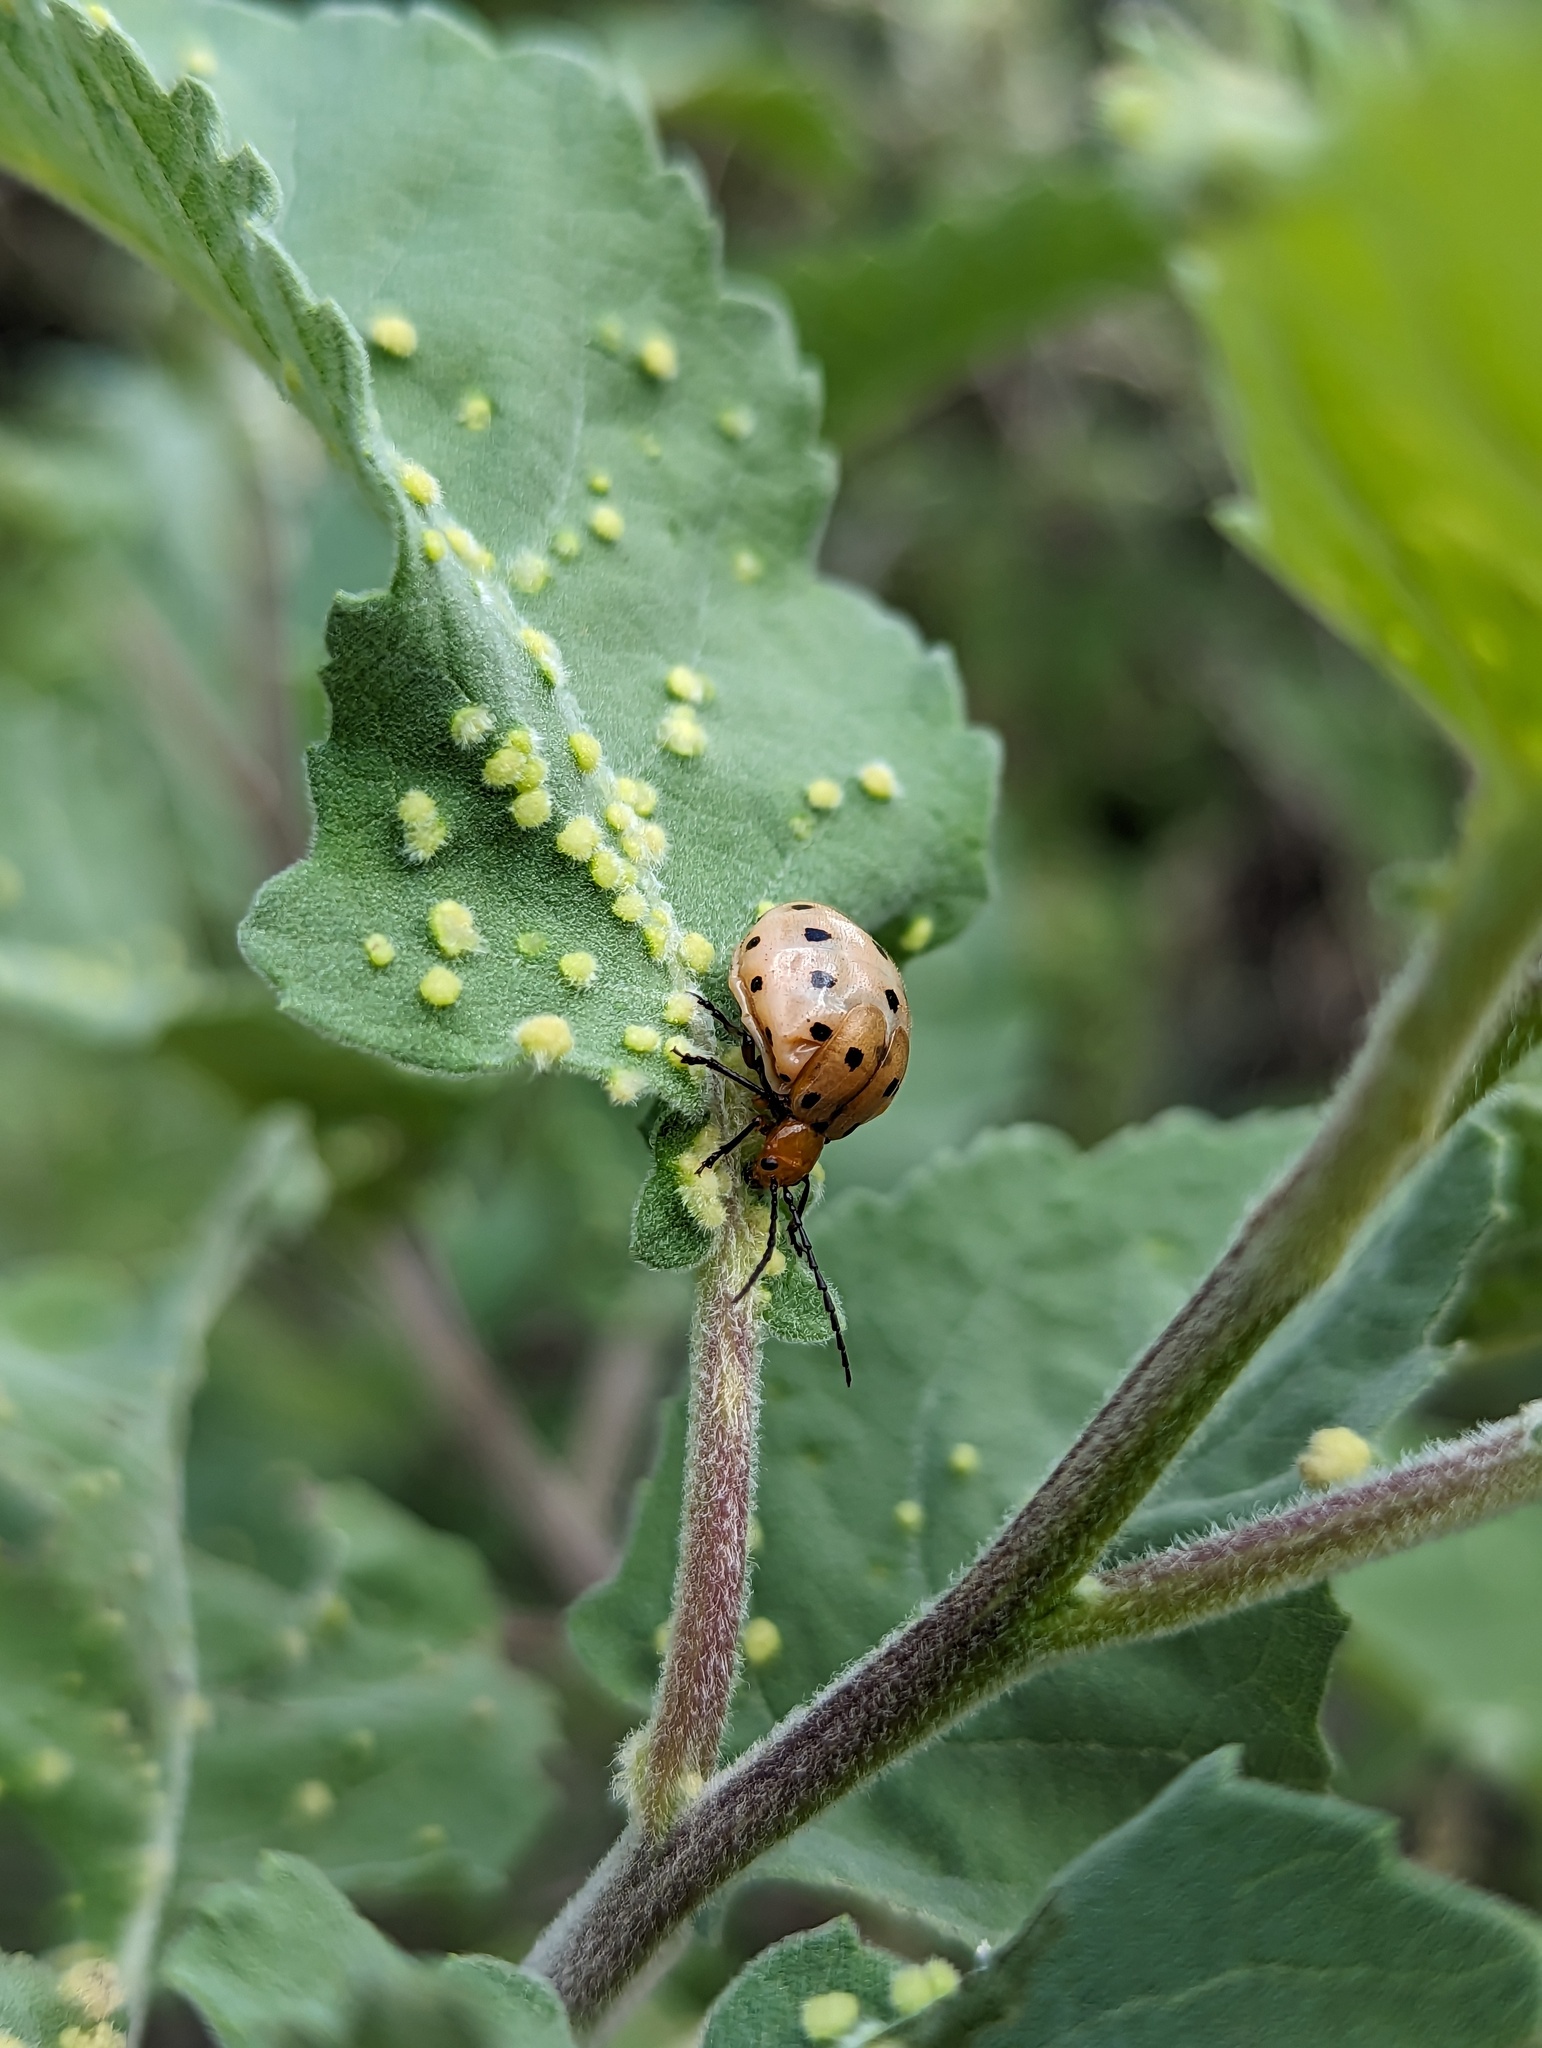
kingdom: Animalia
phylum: Arthropoda
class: Insecta
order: Coleoptera
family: Chrysomelidae
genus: Metacycla
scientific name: Metacycla
